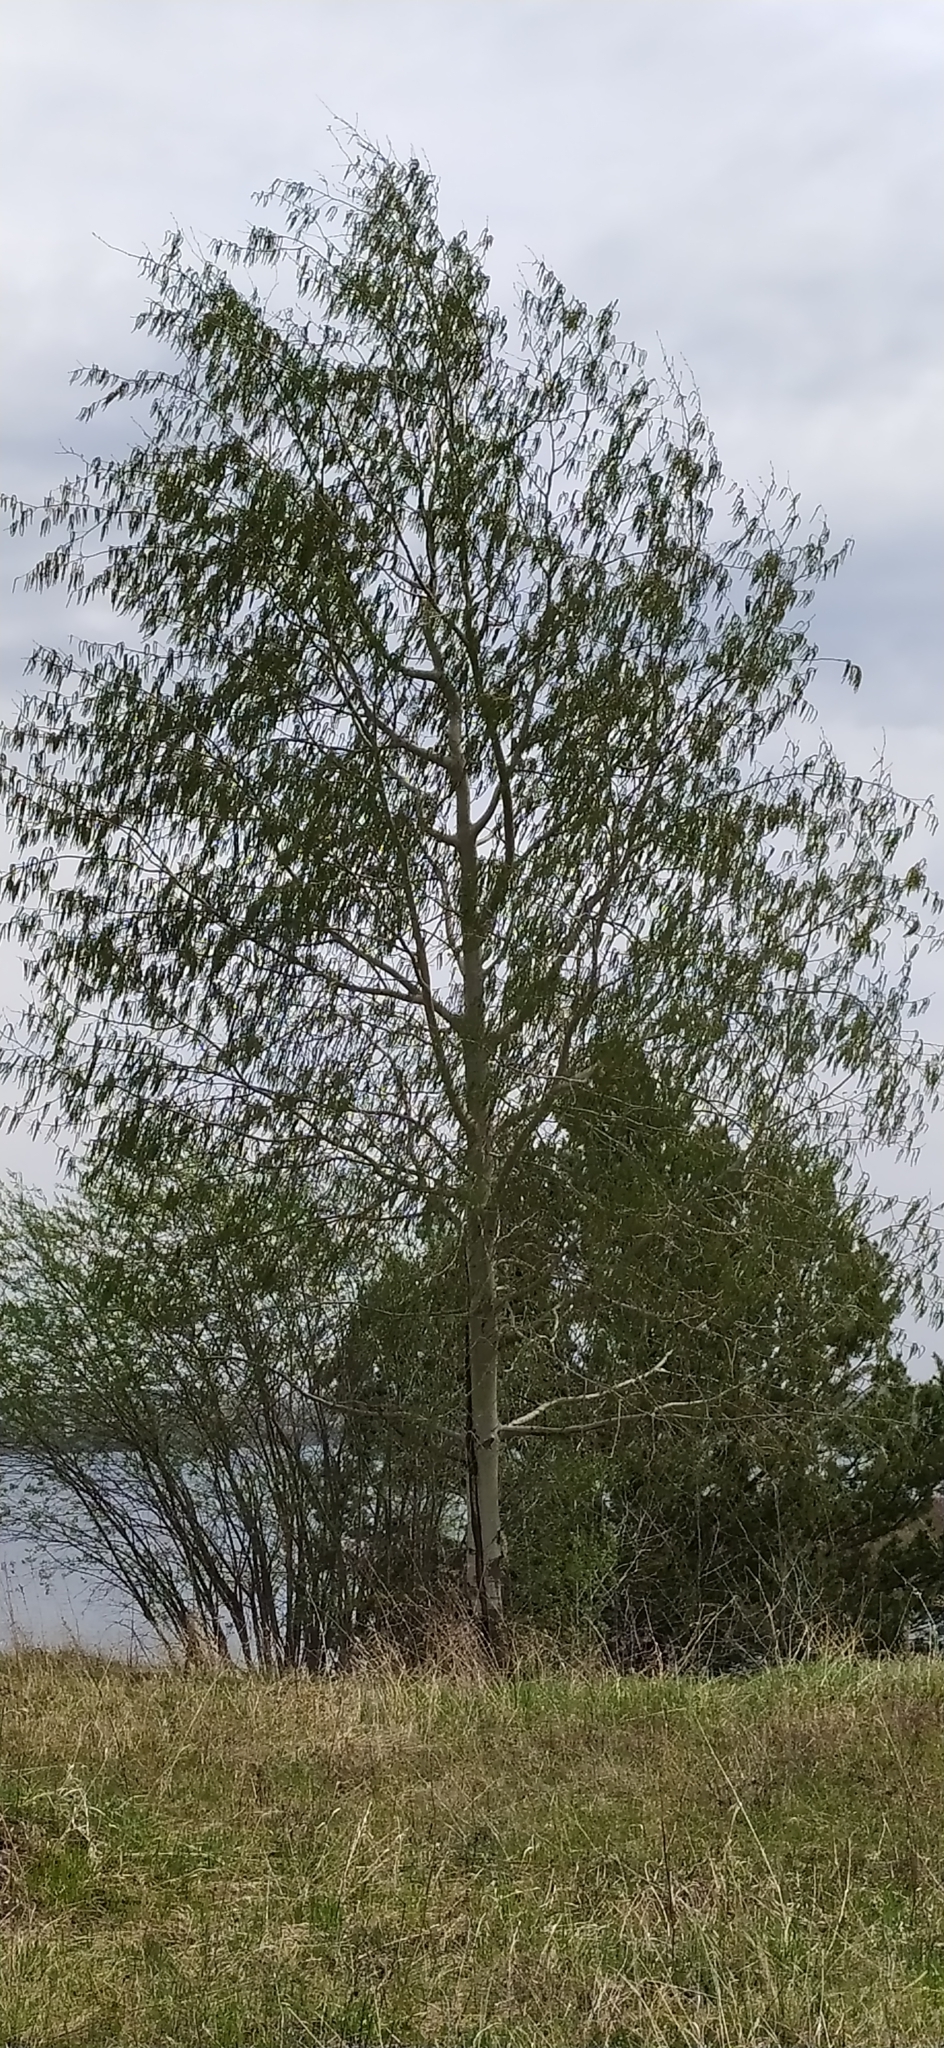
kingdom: Plantae
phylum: Tracheophyta
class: Magnoliopsida
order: Malpighiales
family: Salicaceae
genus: Populus
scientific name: Populus tremula
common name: European aspen
